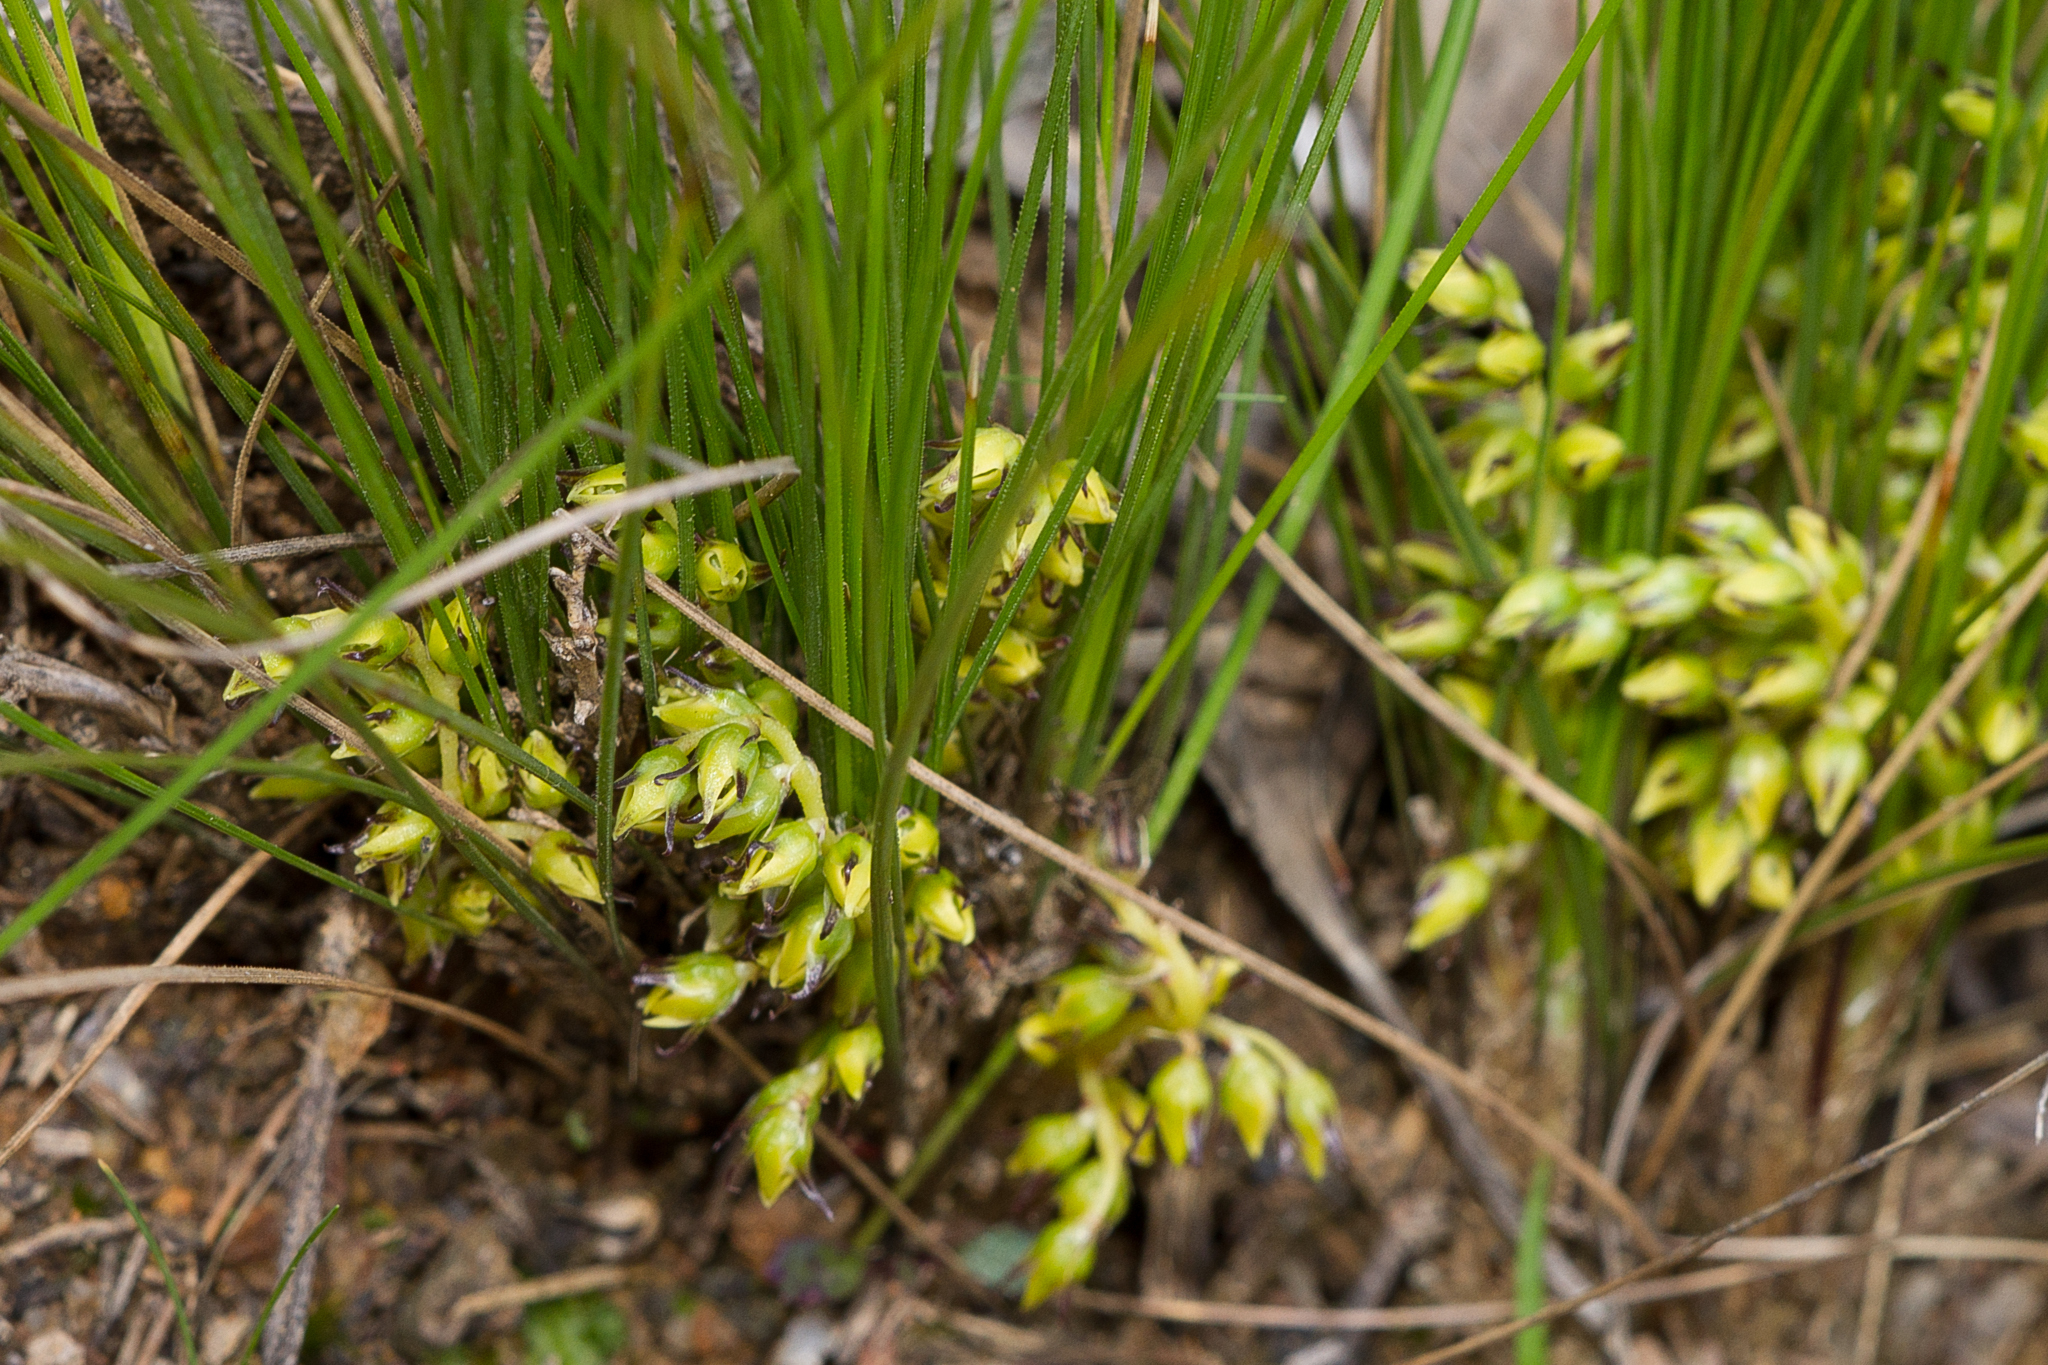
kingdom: Plantae
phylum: Tracheophyta
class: Liliopsida
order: Asparagales
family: Asparagaceae
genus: Lomandra
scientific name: Lomandra fibrata
